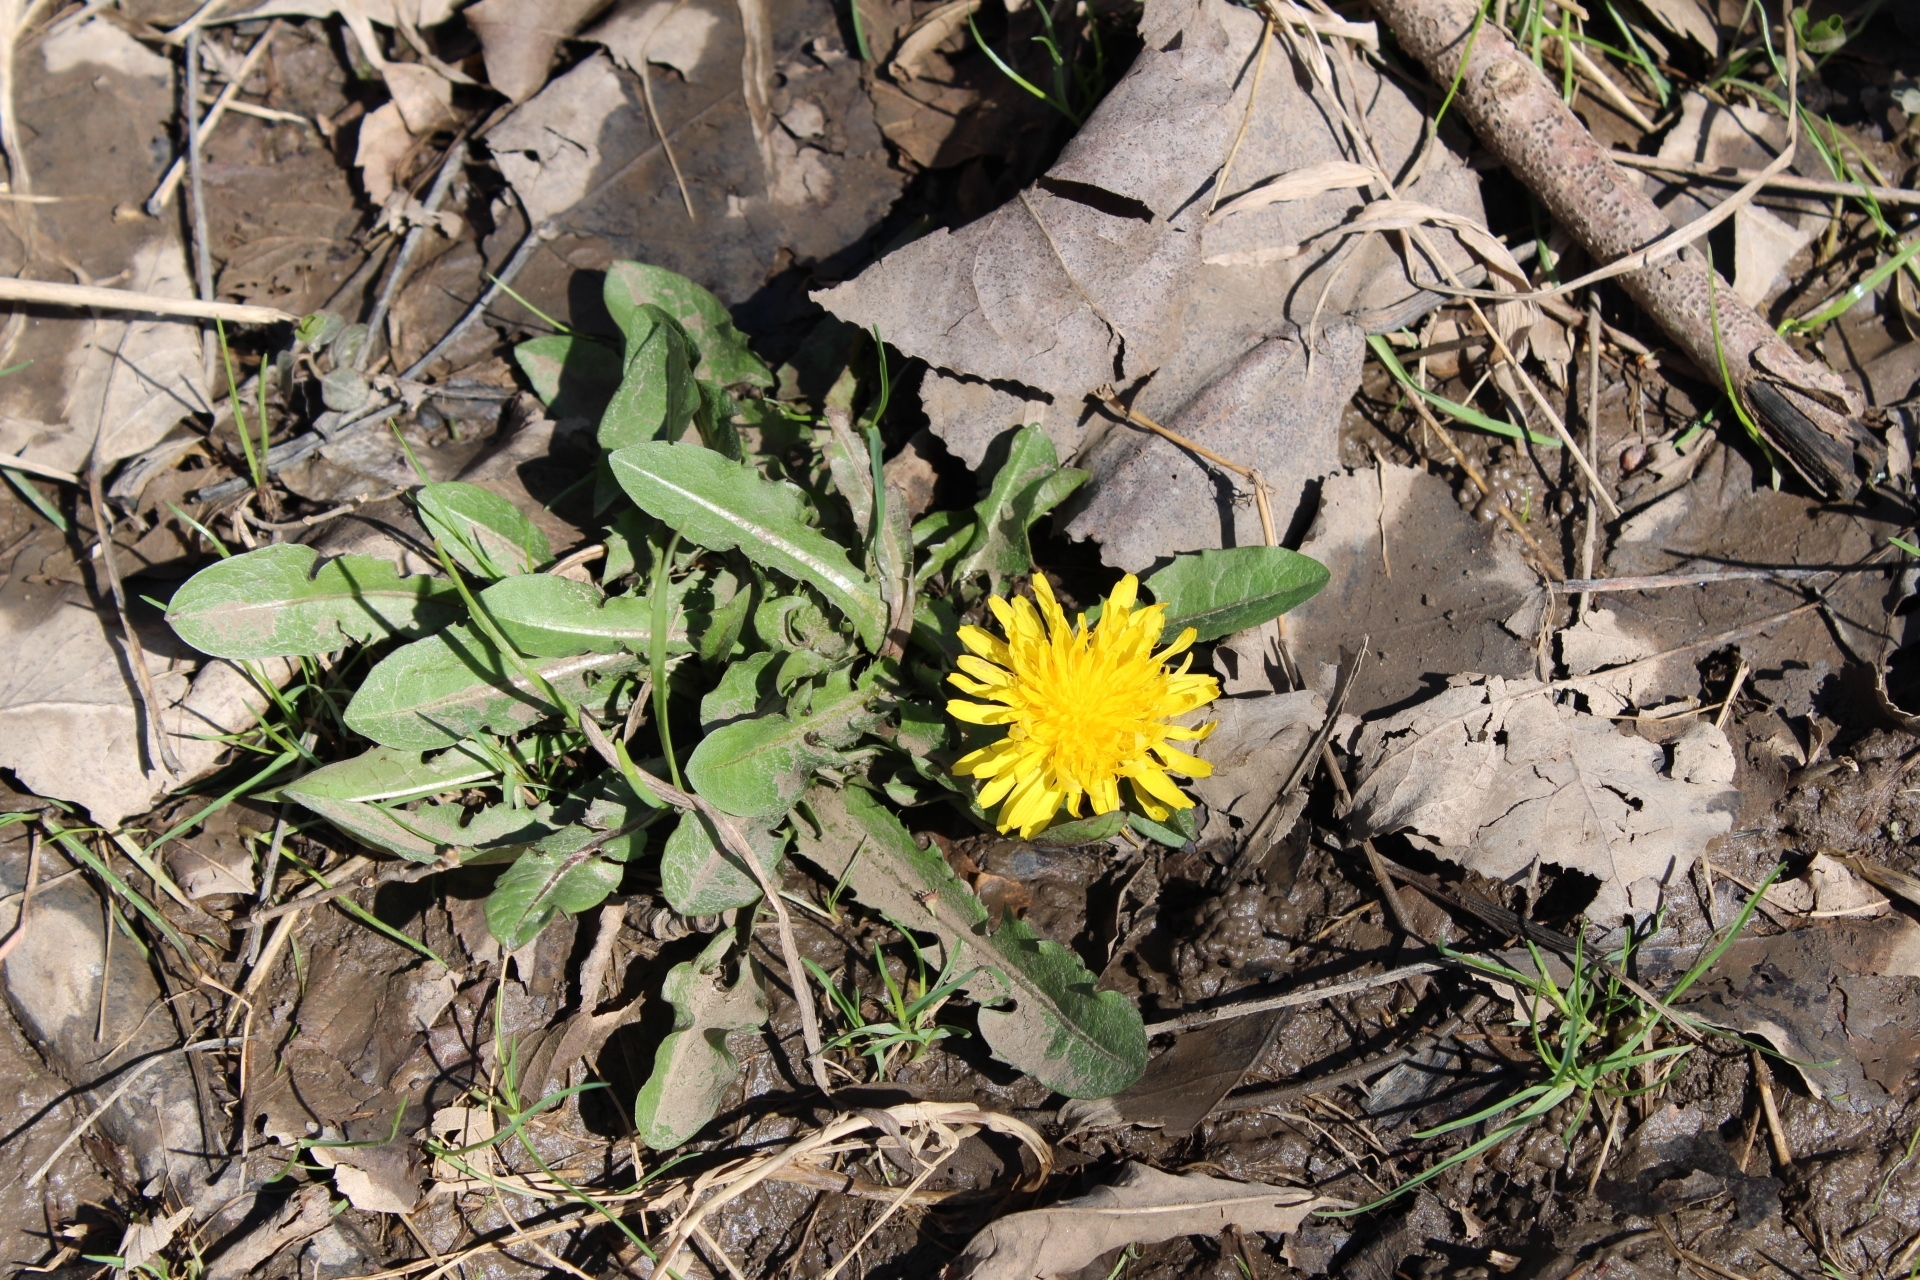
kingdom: Plantae
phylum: Tracheophyta
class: Magnoliopsida
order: Asterales
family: Asteraceae
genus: Taraxacum
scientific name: Taraxacum officinale
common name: Common dandelion
